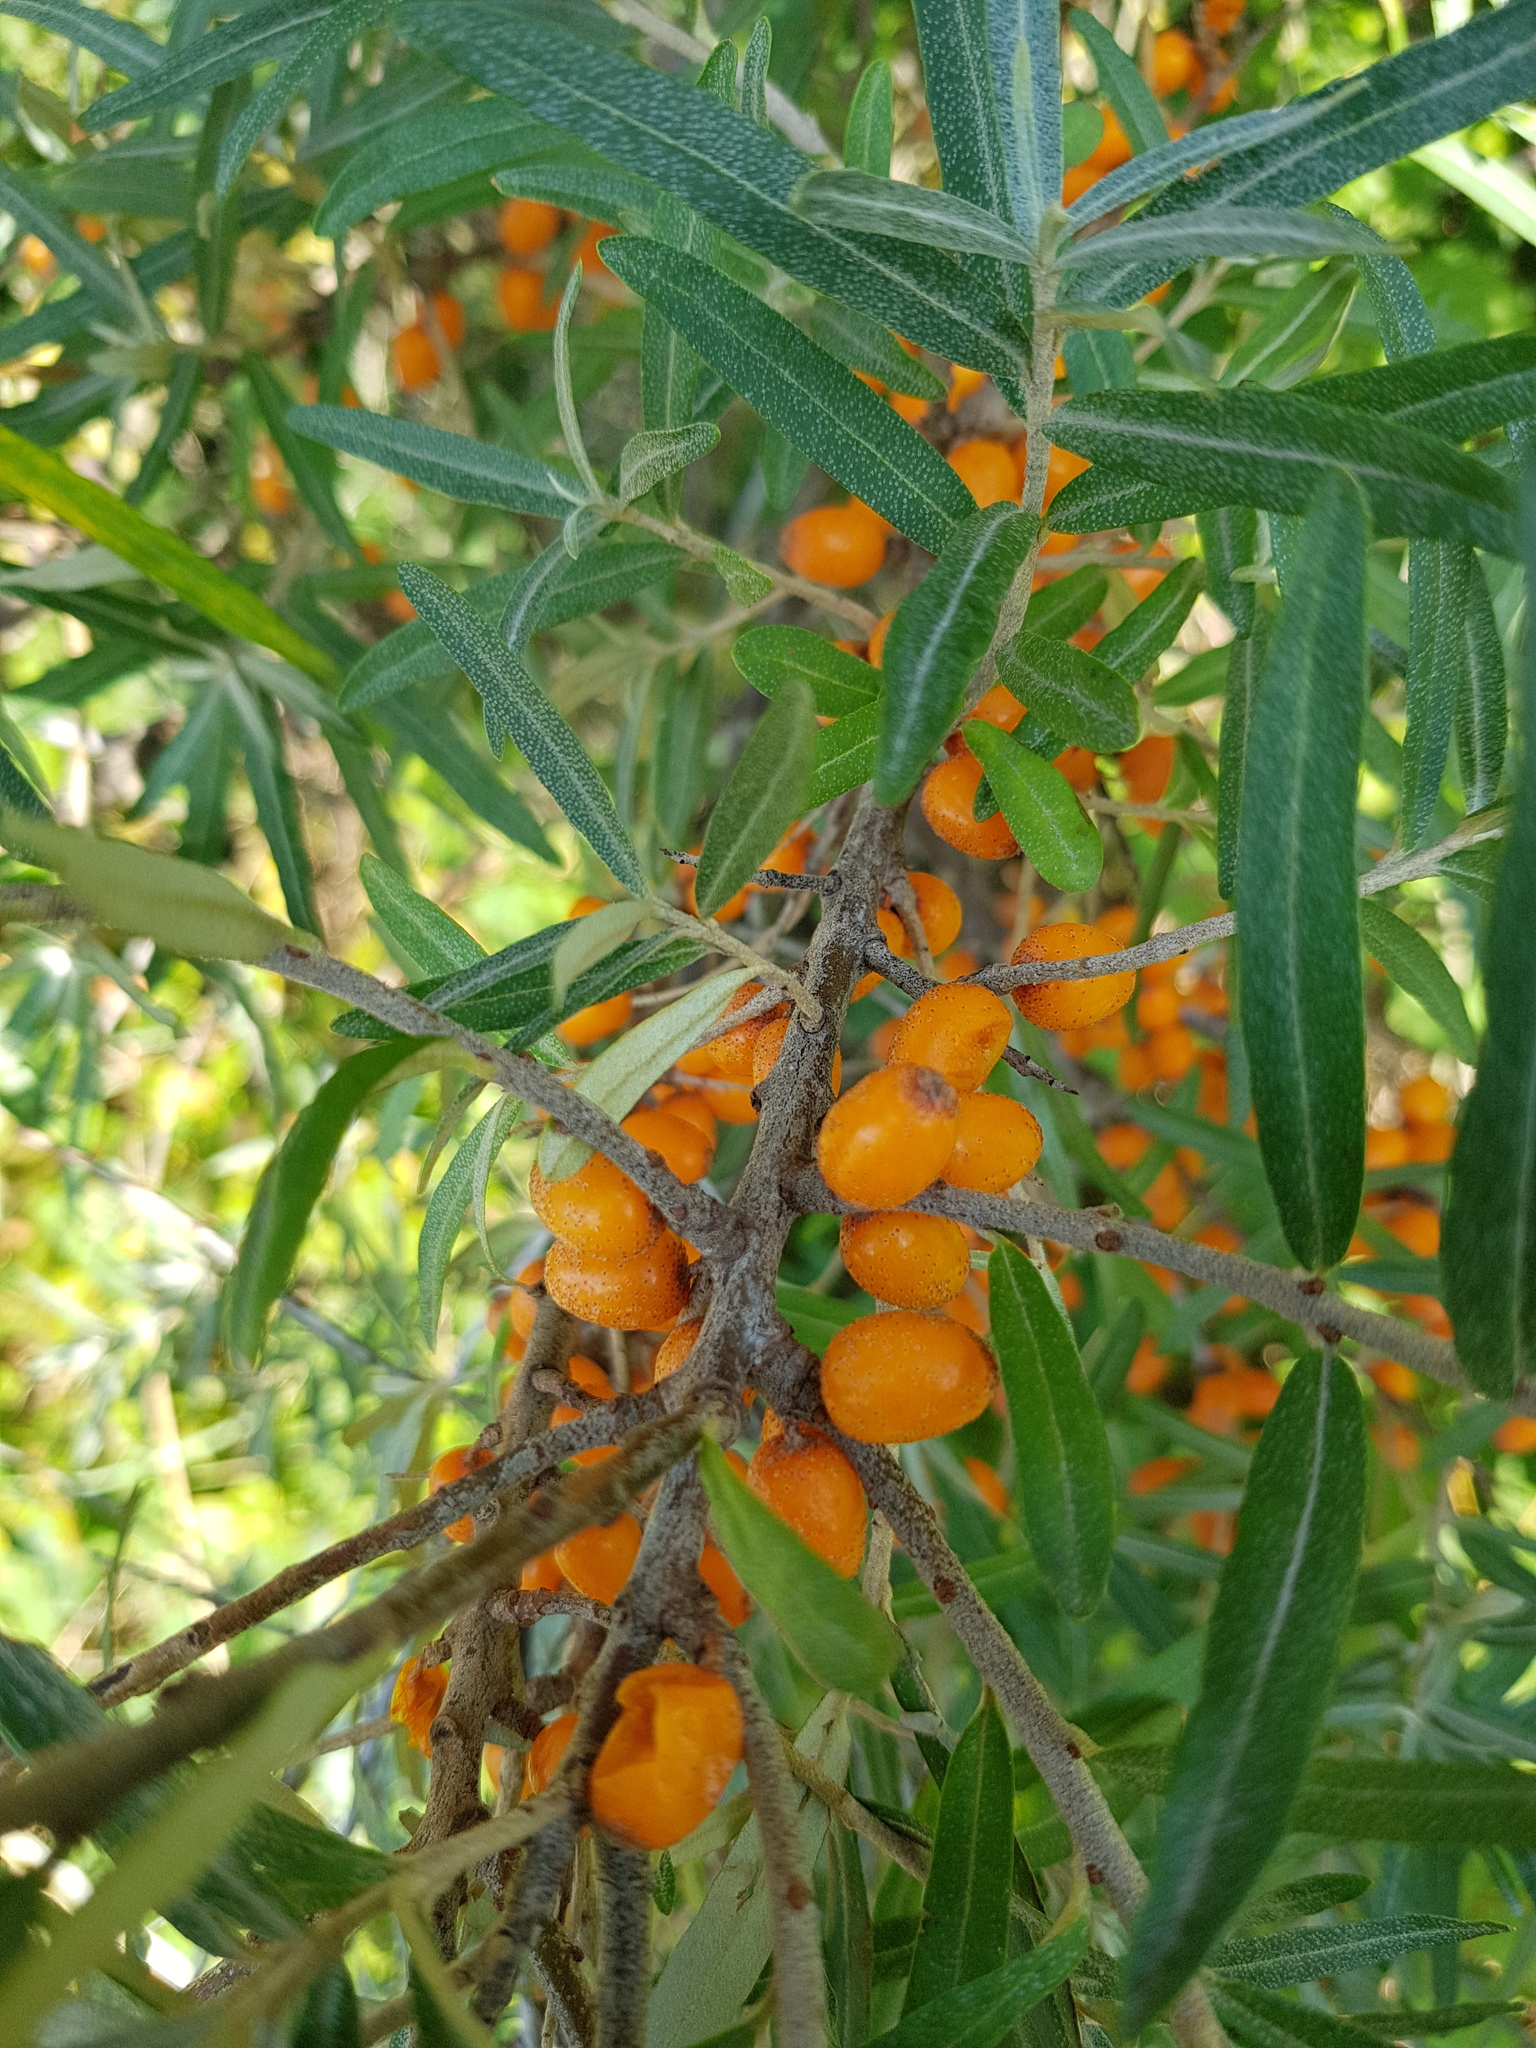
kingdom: Plantae
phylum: Tracheophyta
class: Magnoliopsida
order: Rosales
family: Elaeagnaceae
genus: Hippophae
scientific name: Hippophae rhamnoides
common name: Sea-buckthorn
